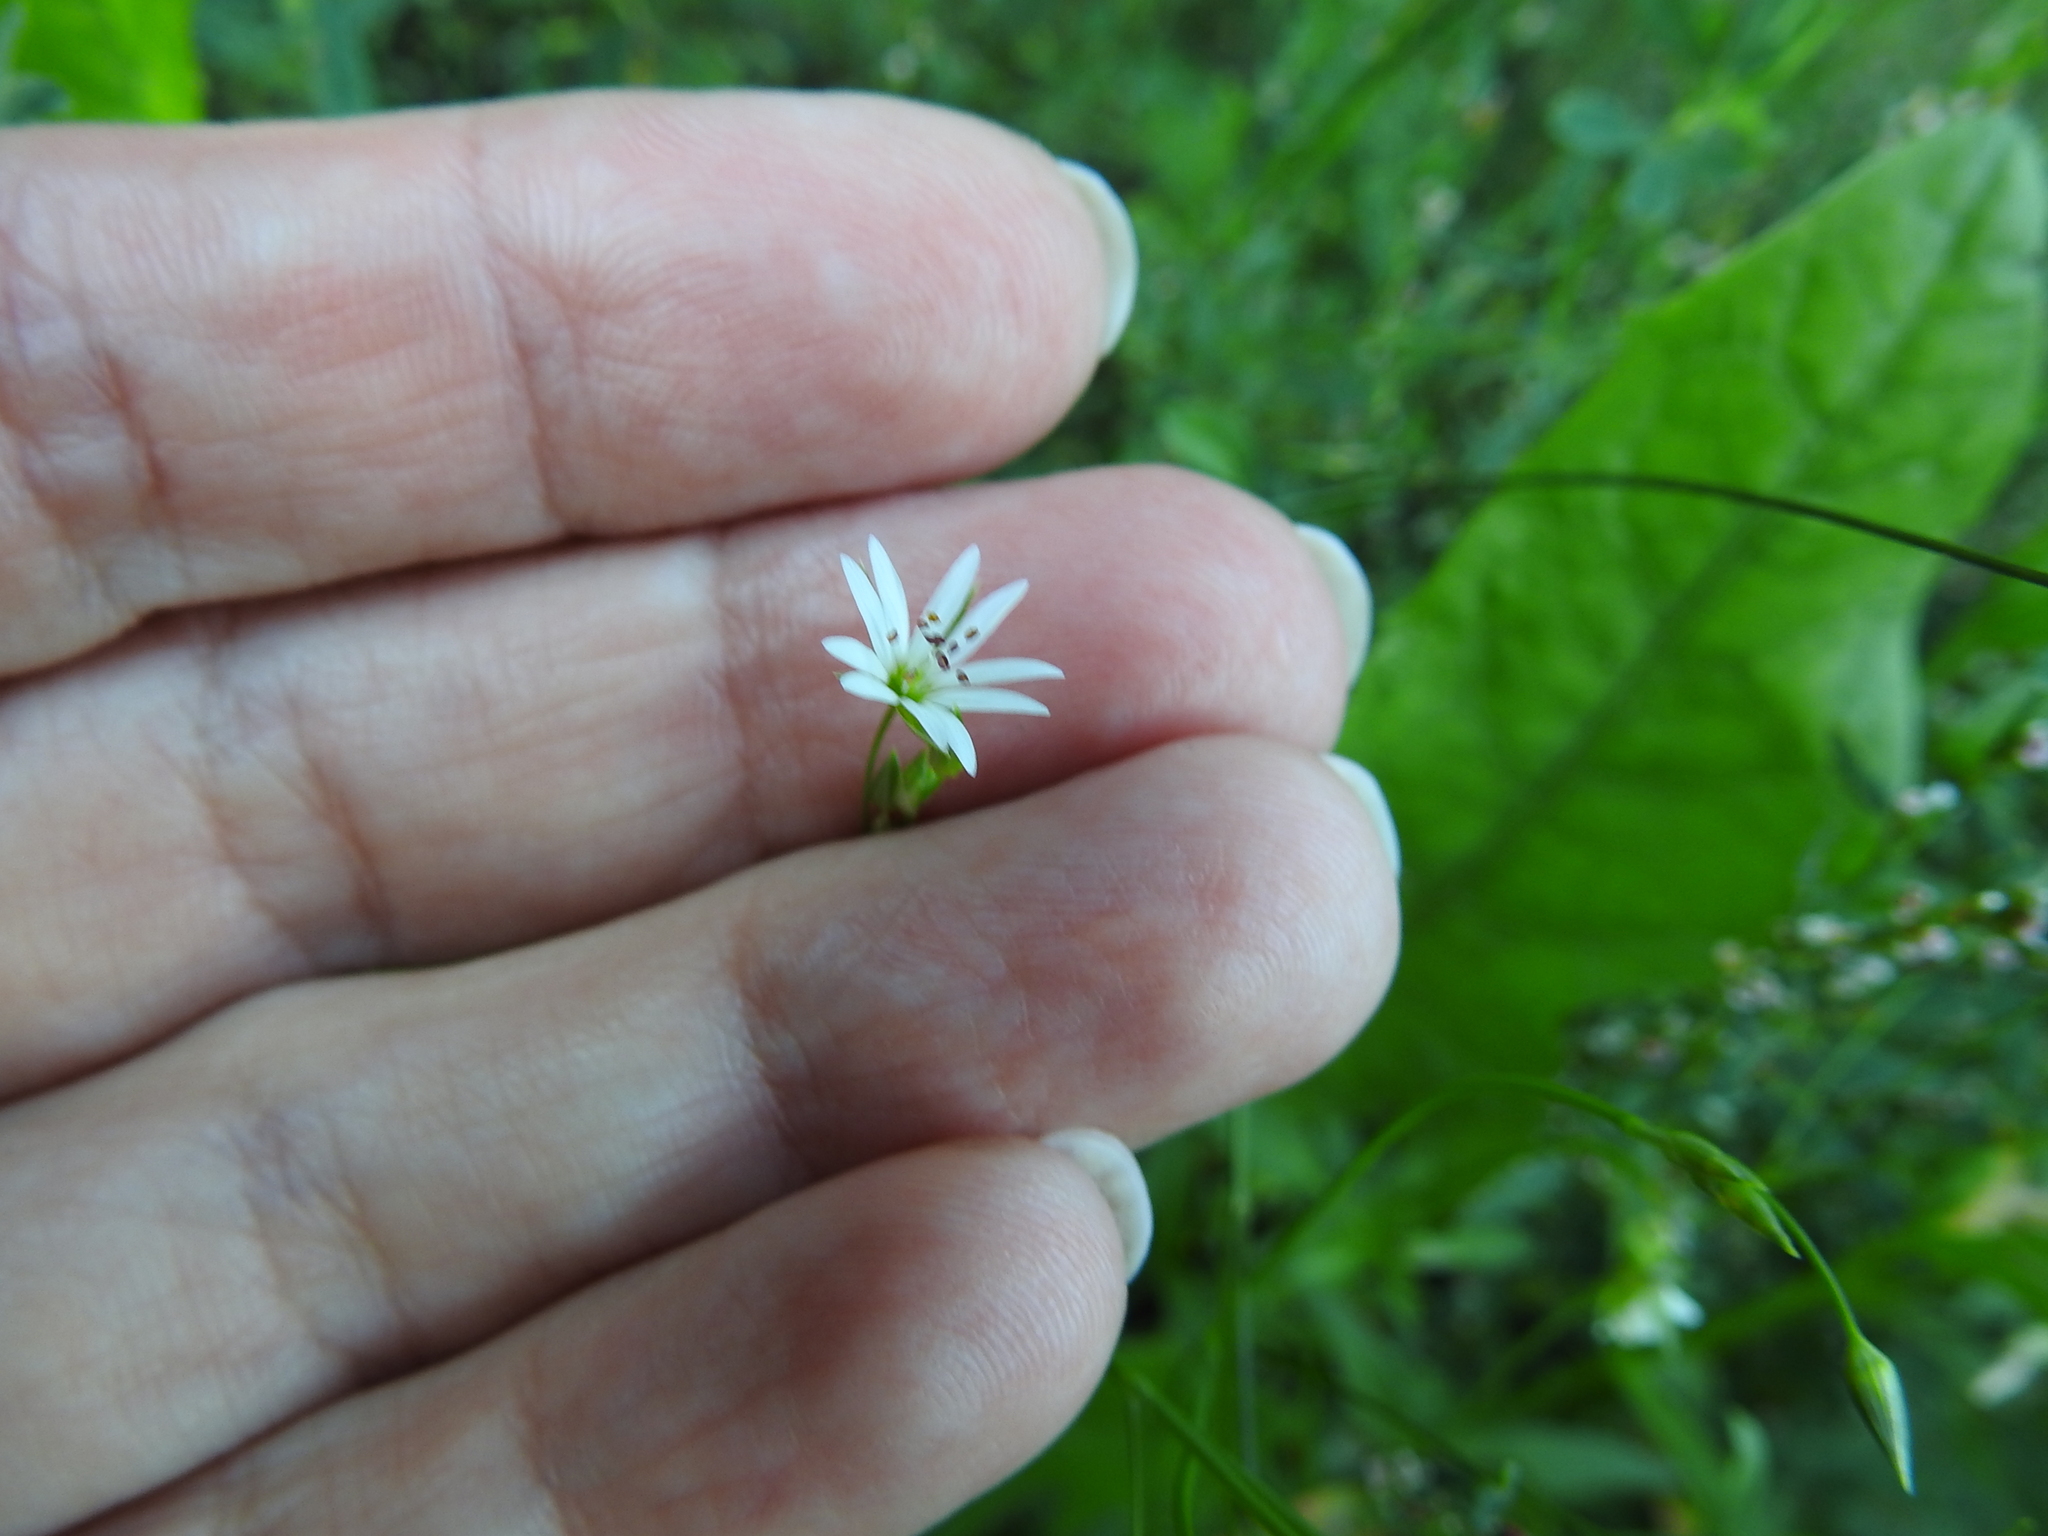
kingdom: Plantae
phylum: Tracheophyta
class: Magnoliopsida
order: Caryophyllales
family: Caryophyllaceae
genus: Stellaria
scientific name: Stellaria graminea
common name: Grass-like starwort
